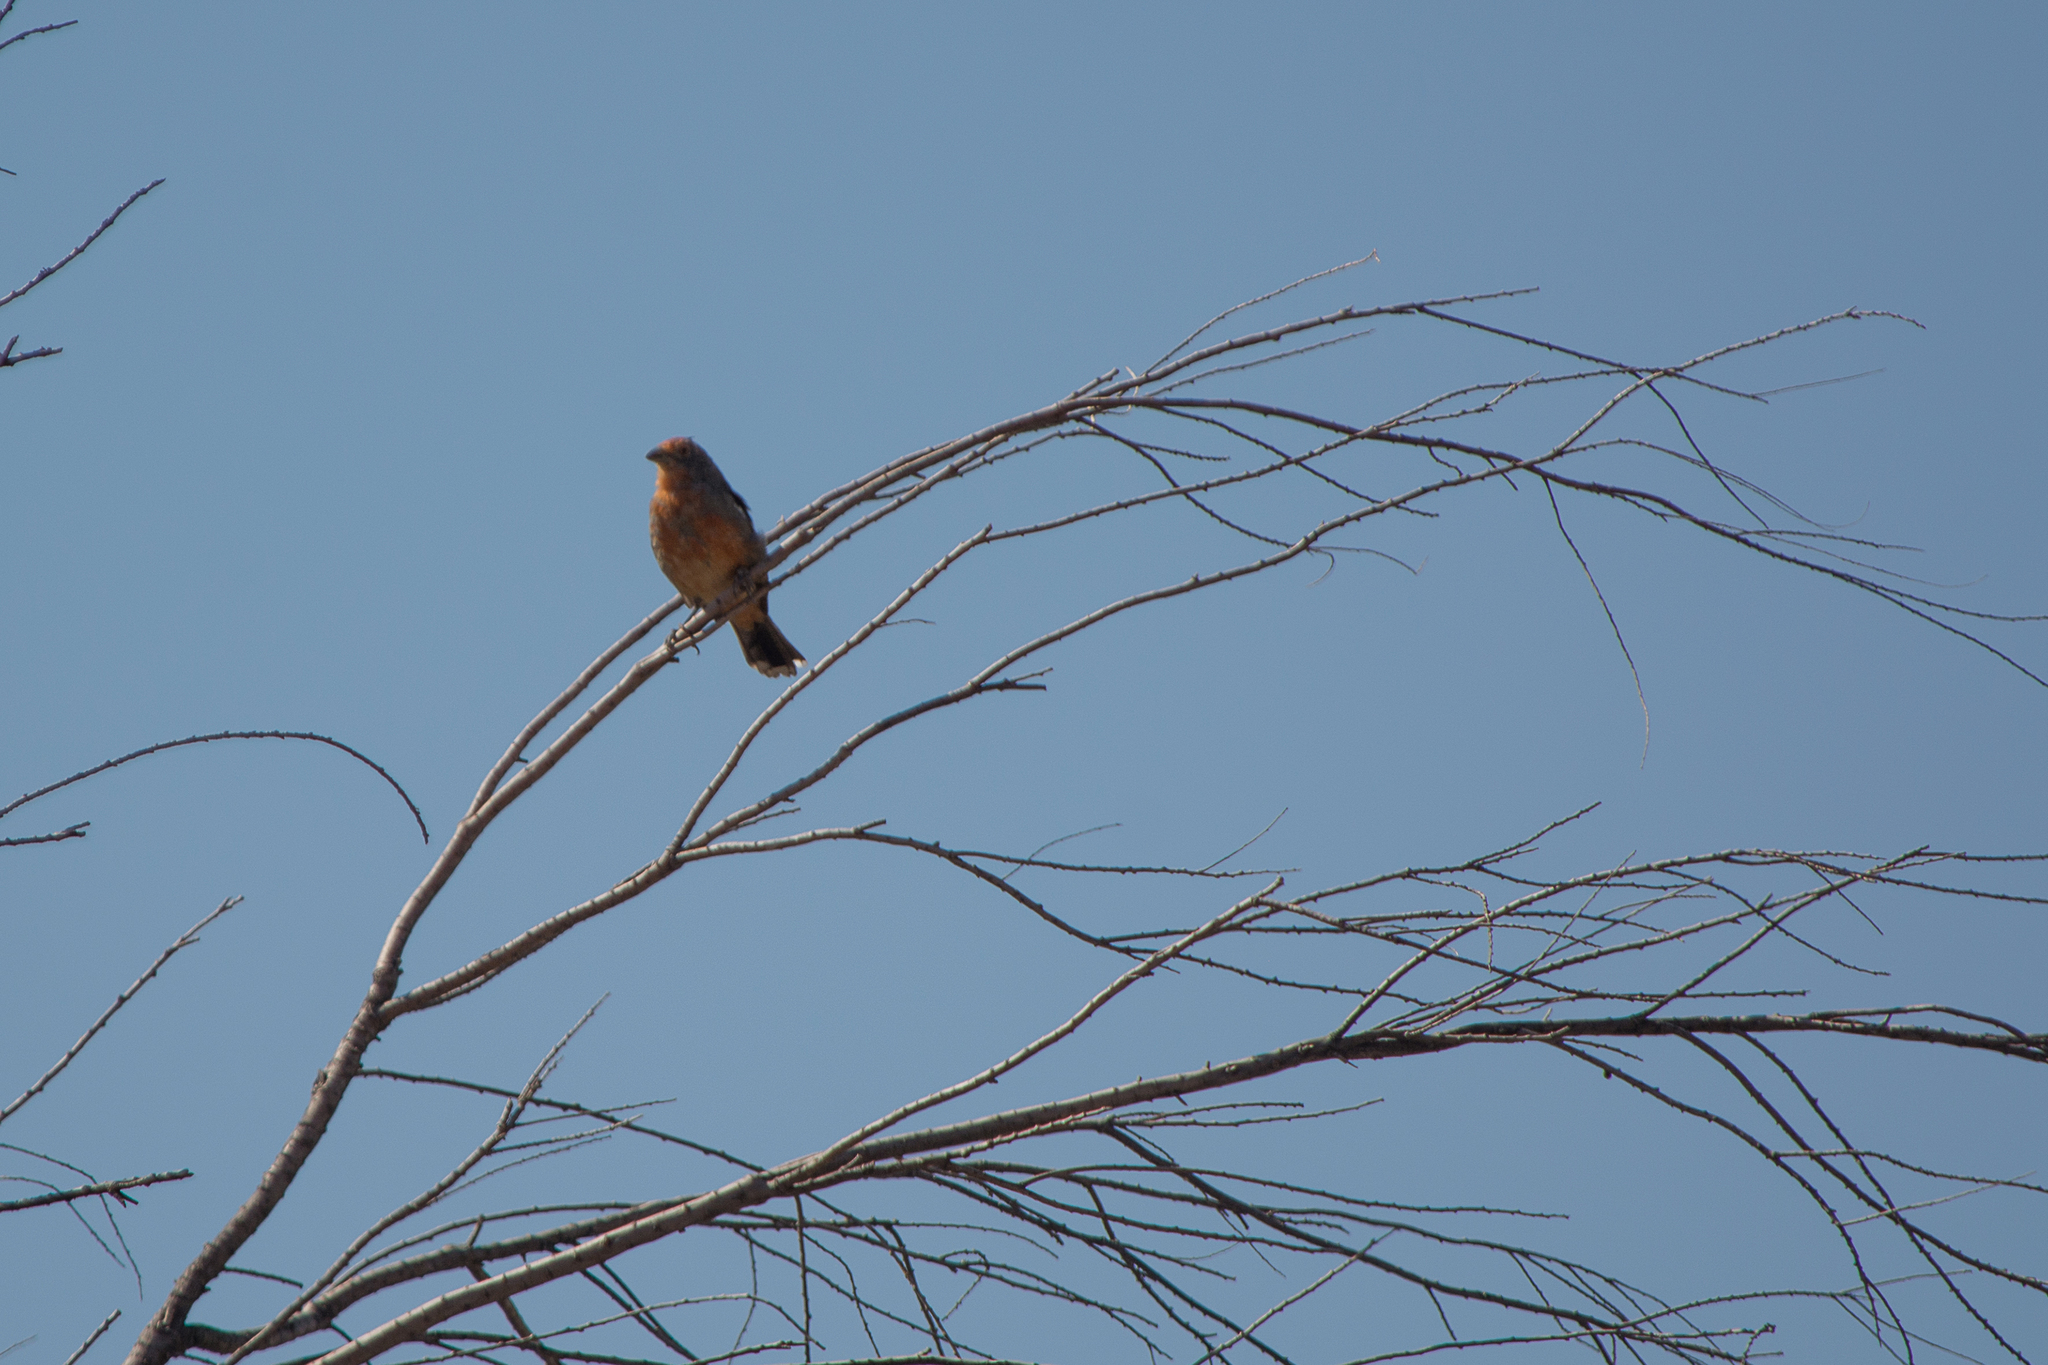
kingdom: Animalia
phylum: Chordata
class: Aves
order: Passeriformes
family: Cotingidae
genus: Phytotoma
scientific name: Phytotoma rutila
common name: White-tipped plantcutter
